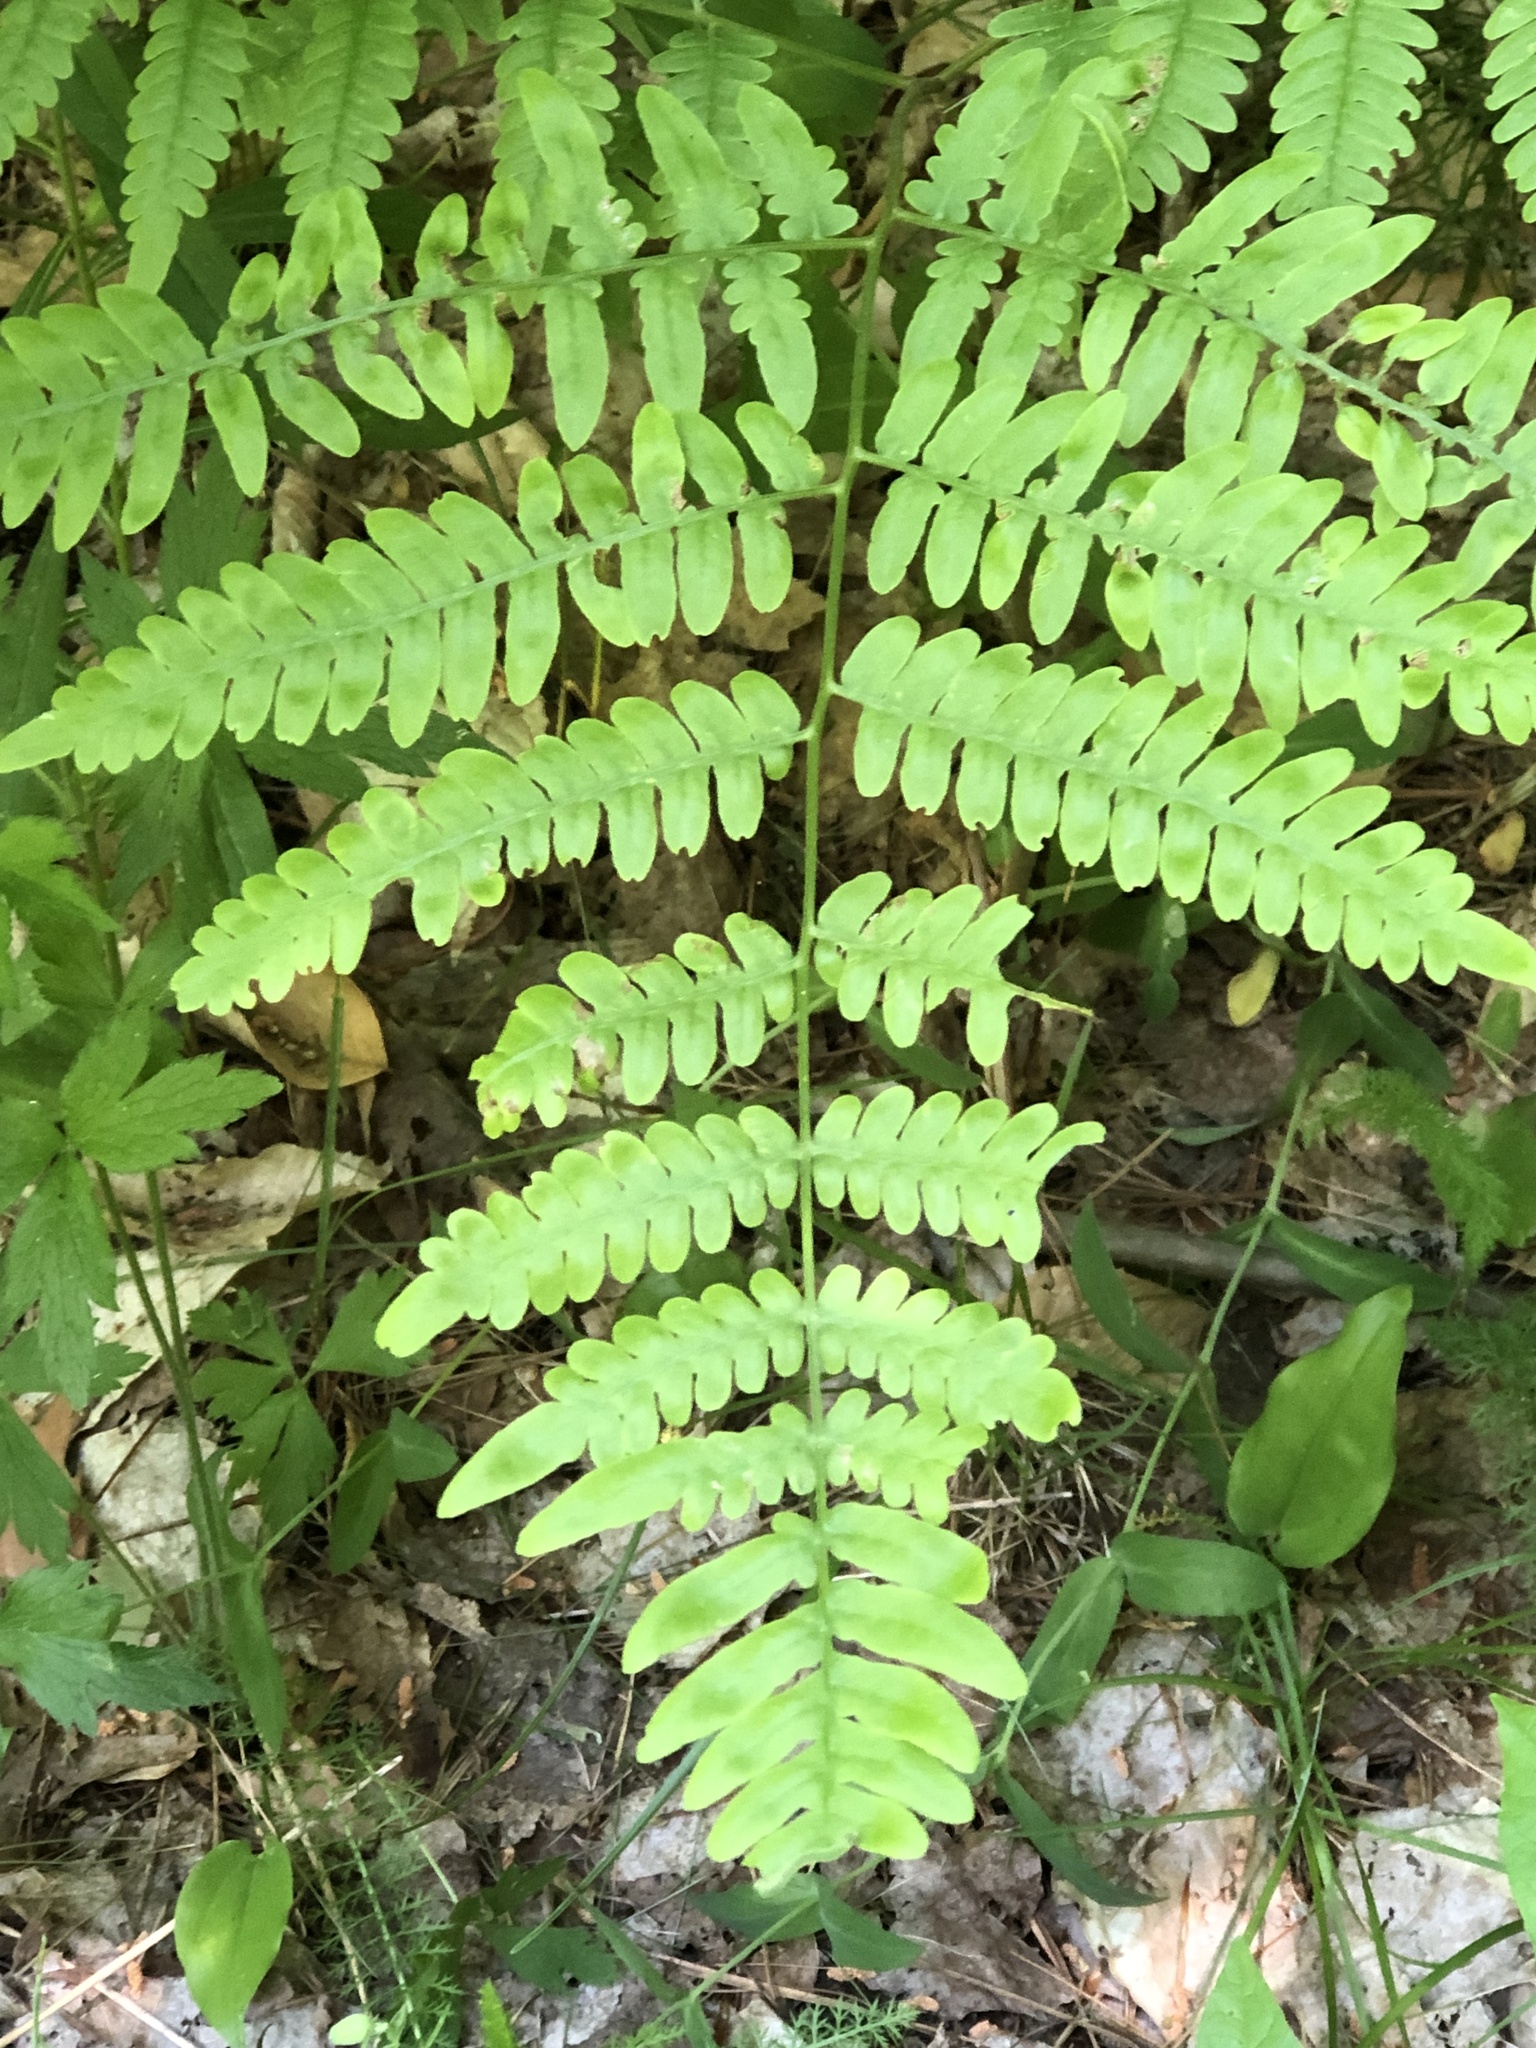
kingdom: Plantae
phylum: Tracheophyta
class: Polypodiopsida
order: Polypodiales
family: Dennstaedtiaceae
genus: Pteridium
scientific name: Pteridium aquilinum
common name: Bracken
